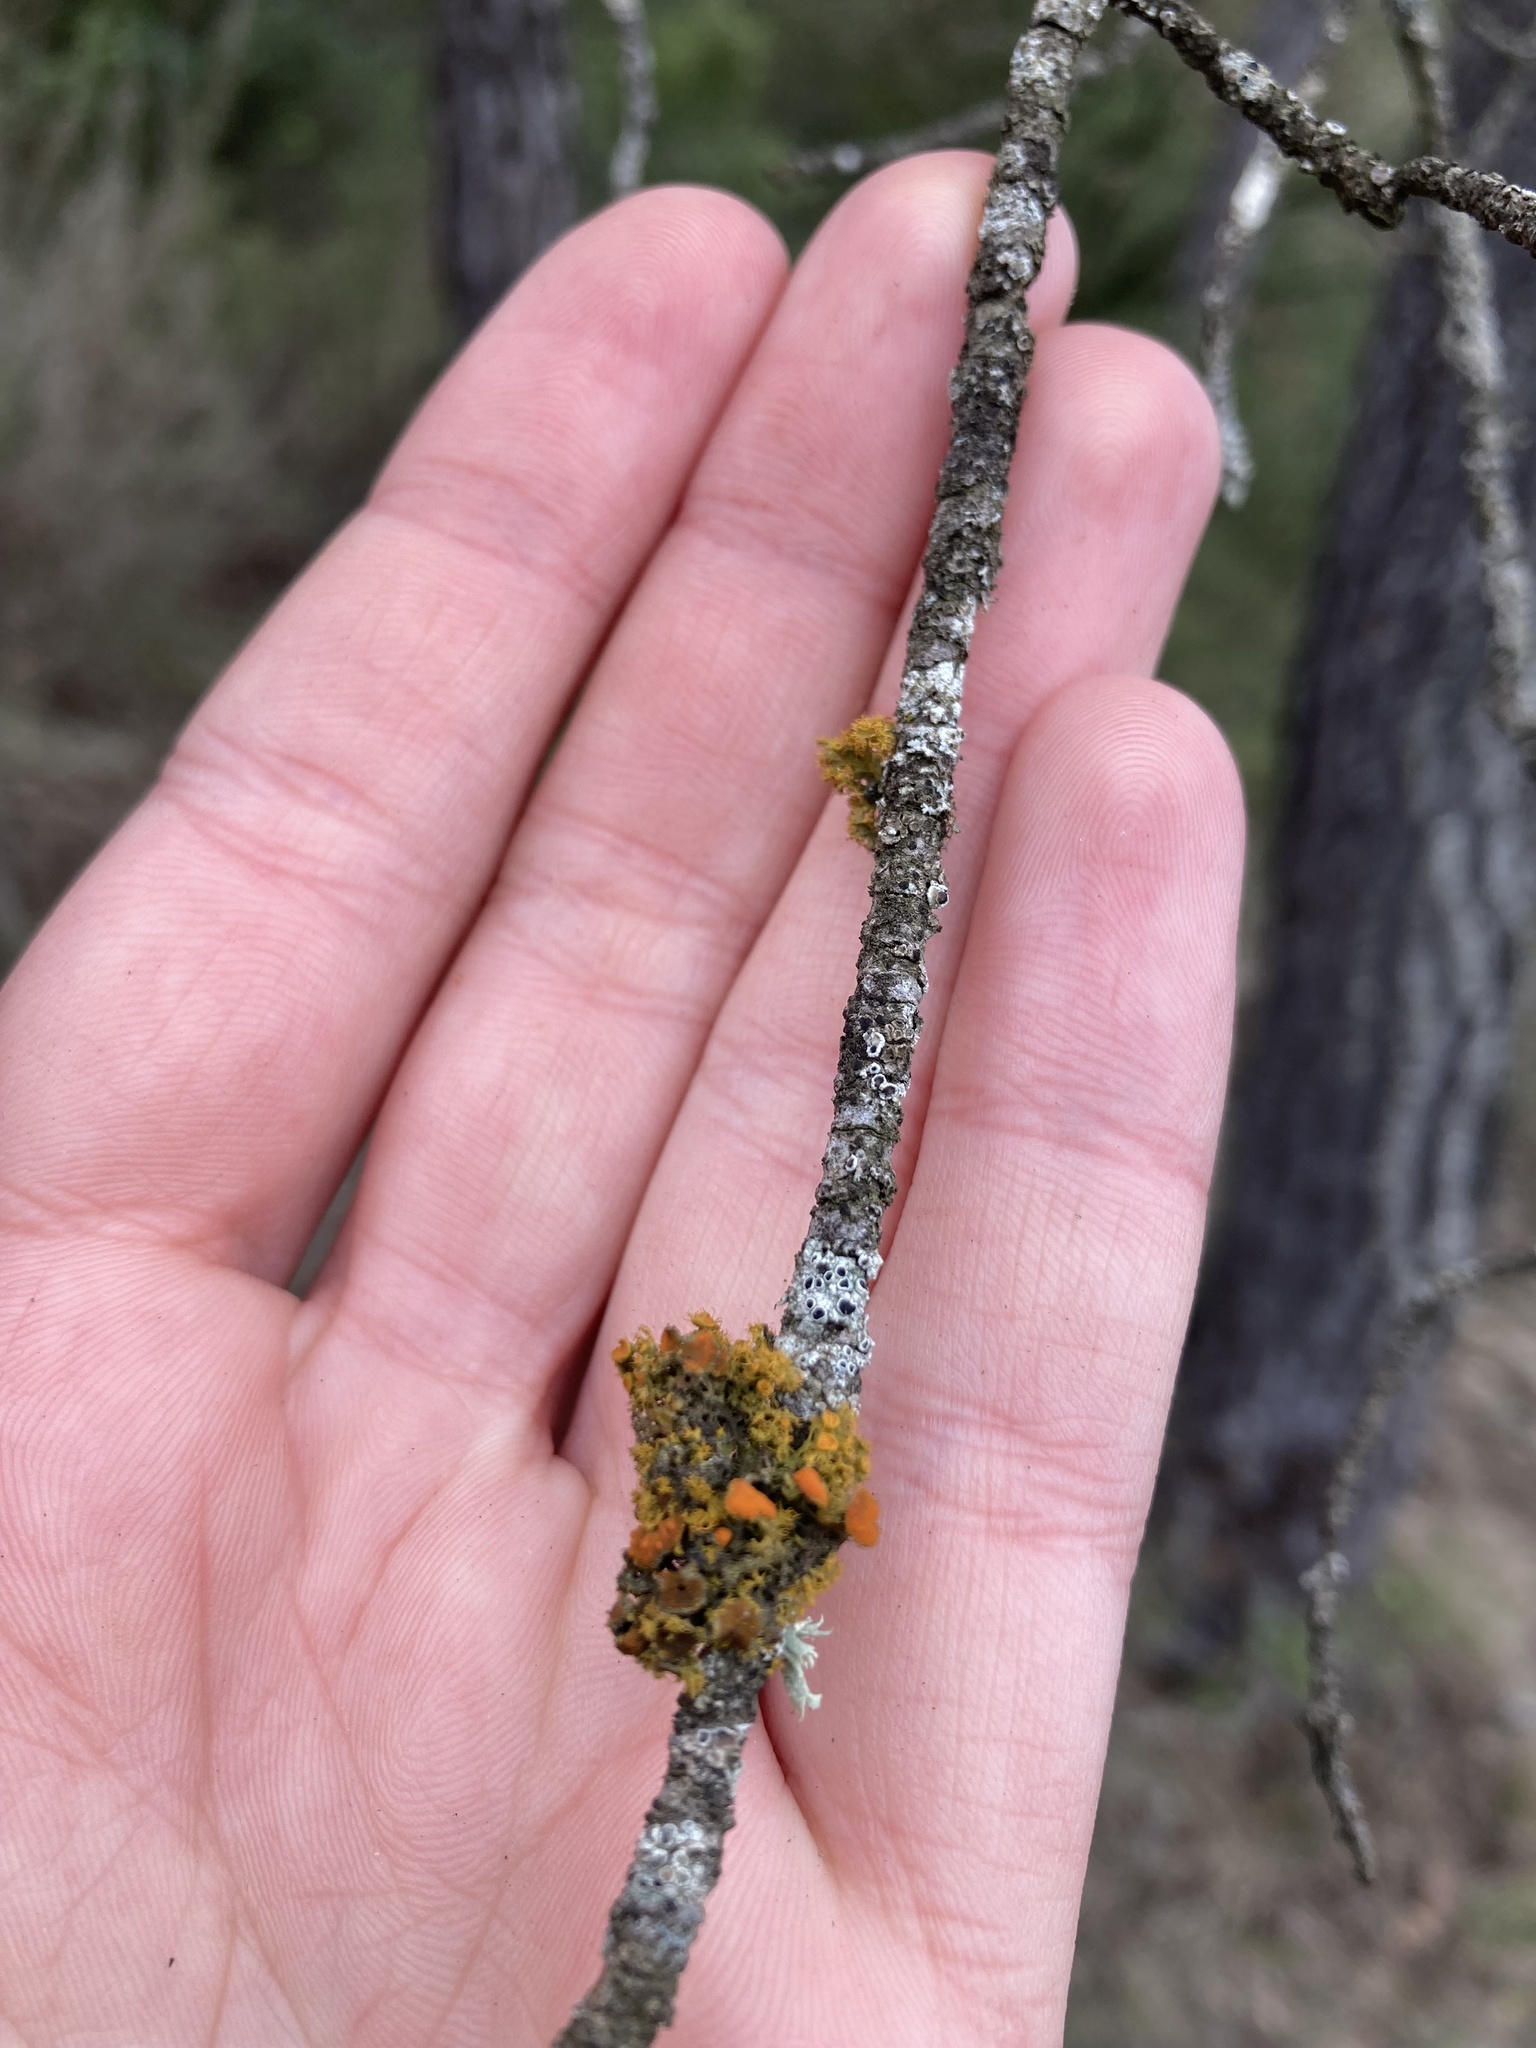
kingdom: Fungi
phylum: Ascomycota
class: Lecanoromycetes
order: Teloschistales
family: Teloschistaceae
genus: Niorma
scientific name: Niorma chrysophthalma
